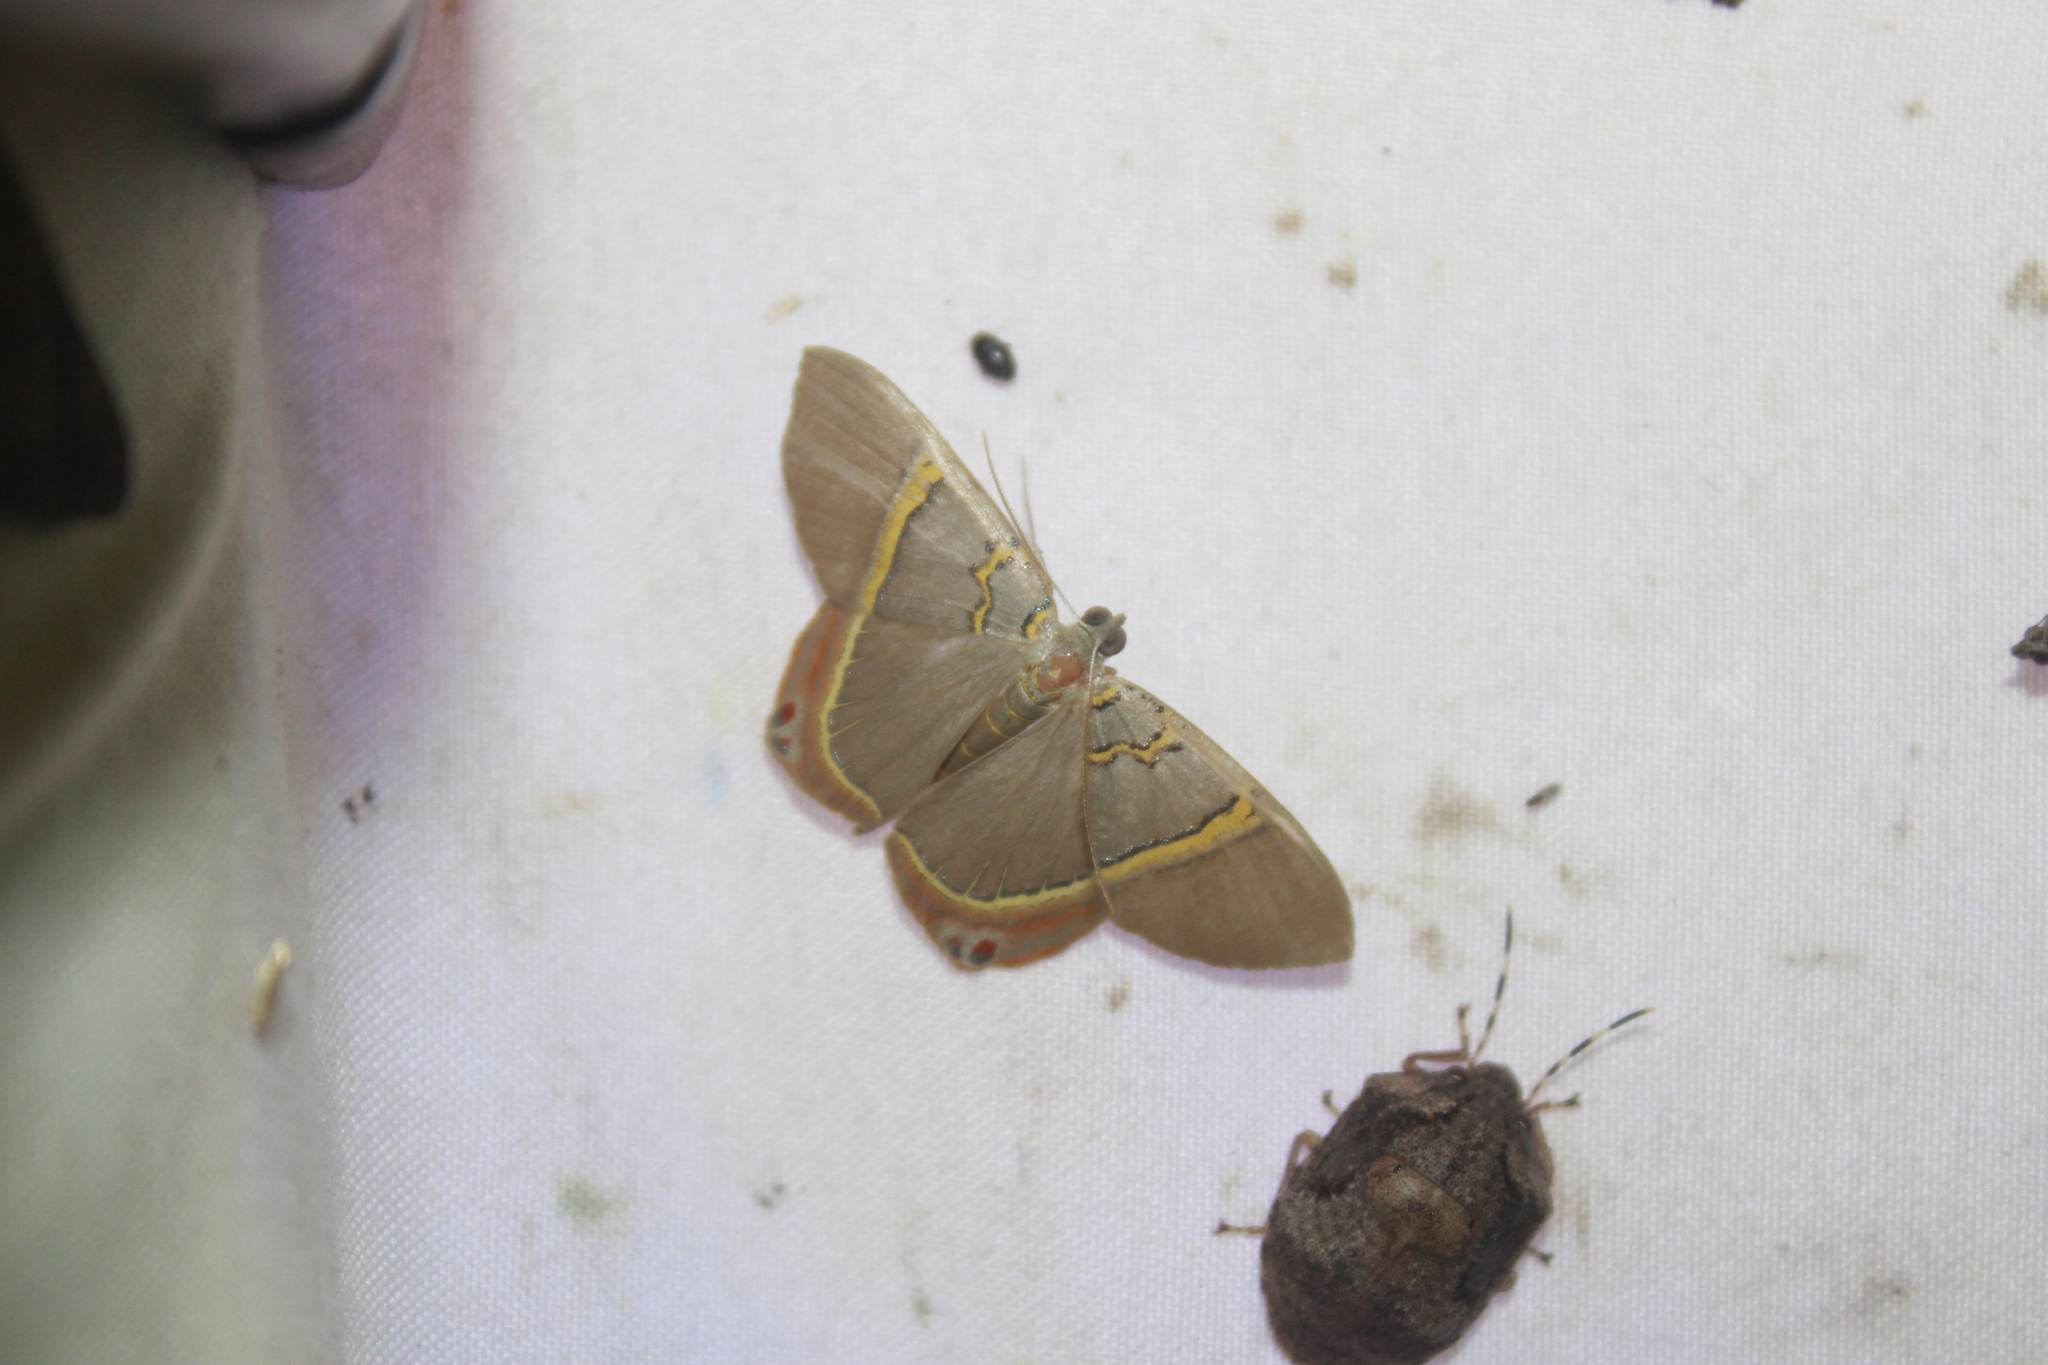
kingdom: Animalia
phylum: Arthropoda
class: Insecta
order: Lepidoptera
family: Geometridae
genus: Phrygionis
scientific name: Phrygionis paradoxata
